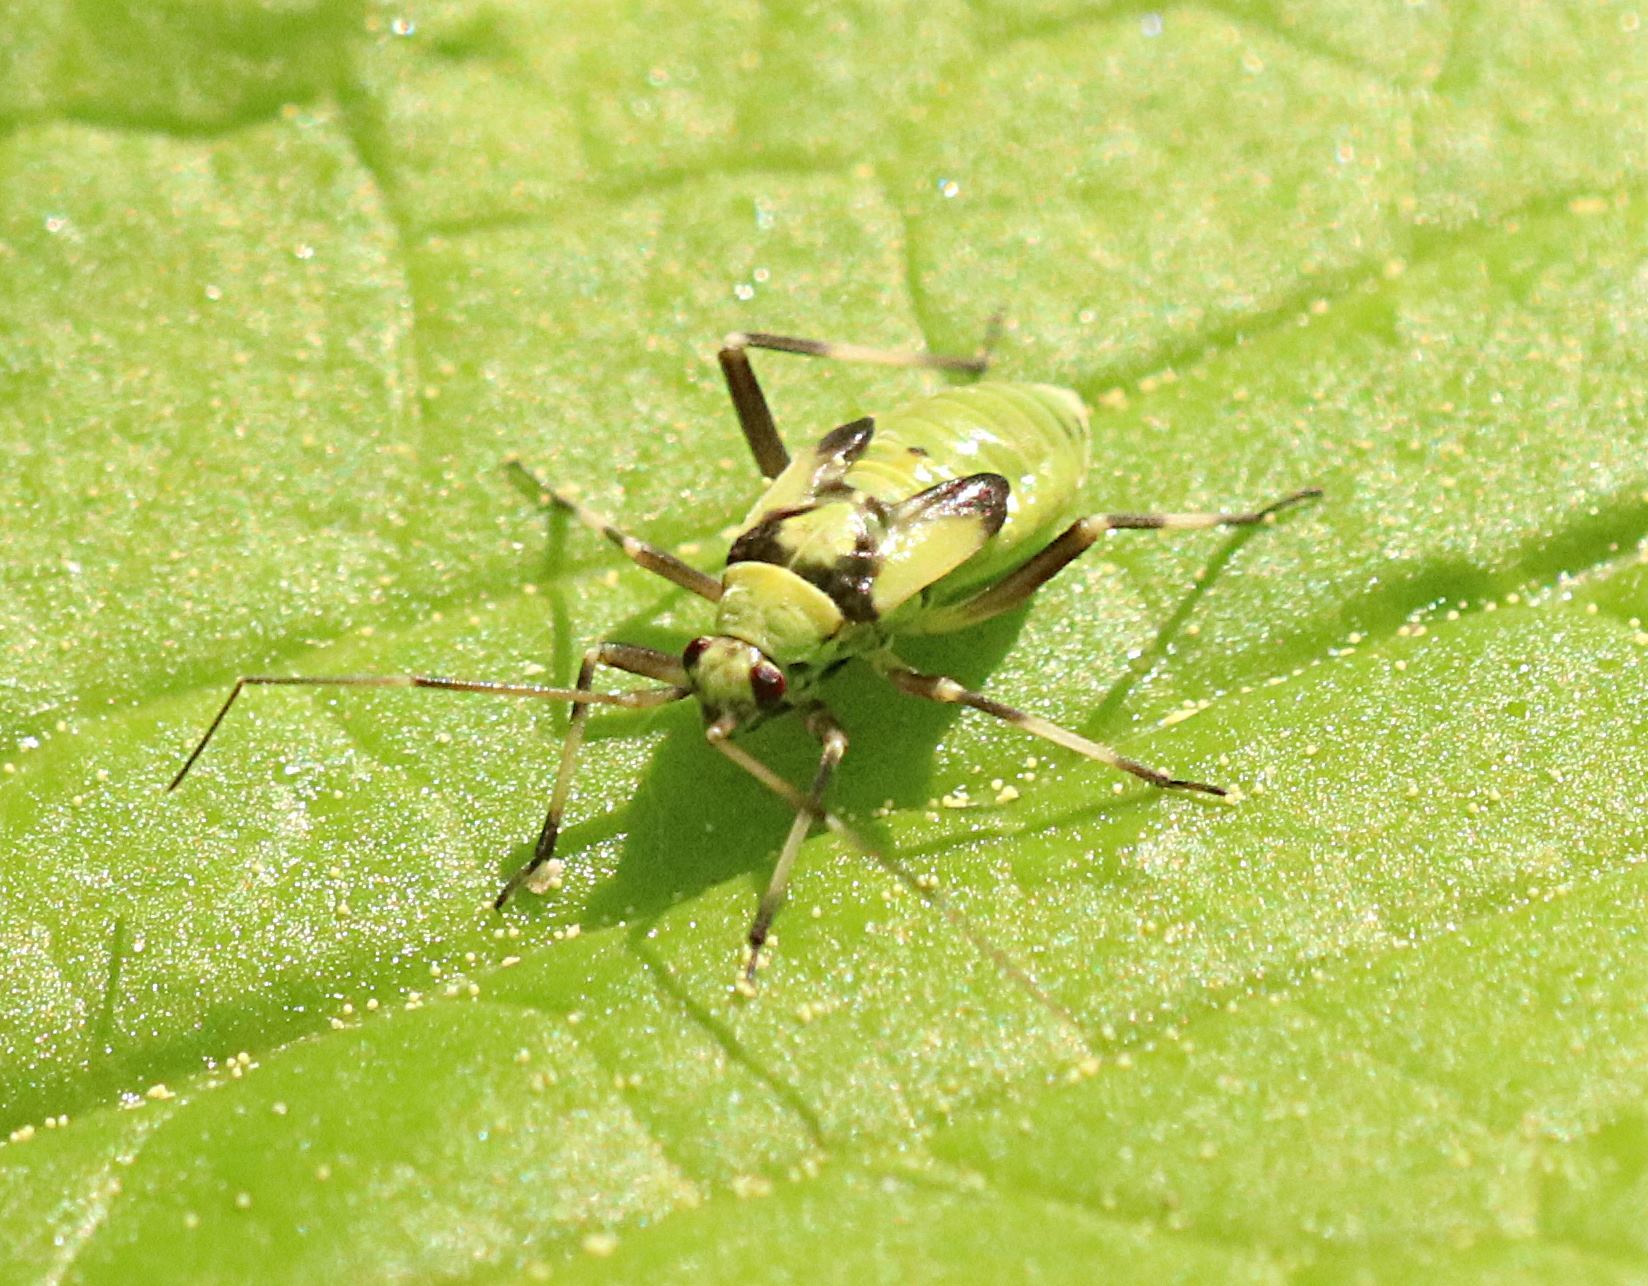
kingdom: Animalia
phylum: Arthropoda
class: Insecta
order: Hemiptera
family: Miridae
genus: Calocoris
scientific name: Calocoris alpestris
